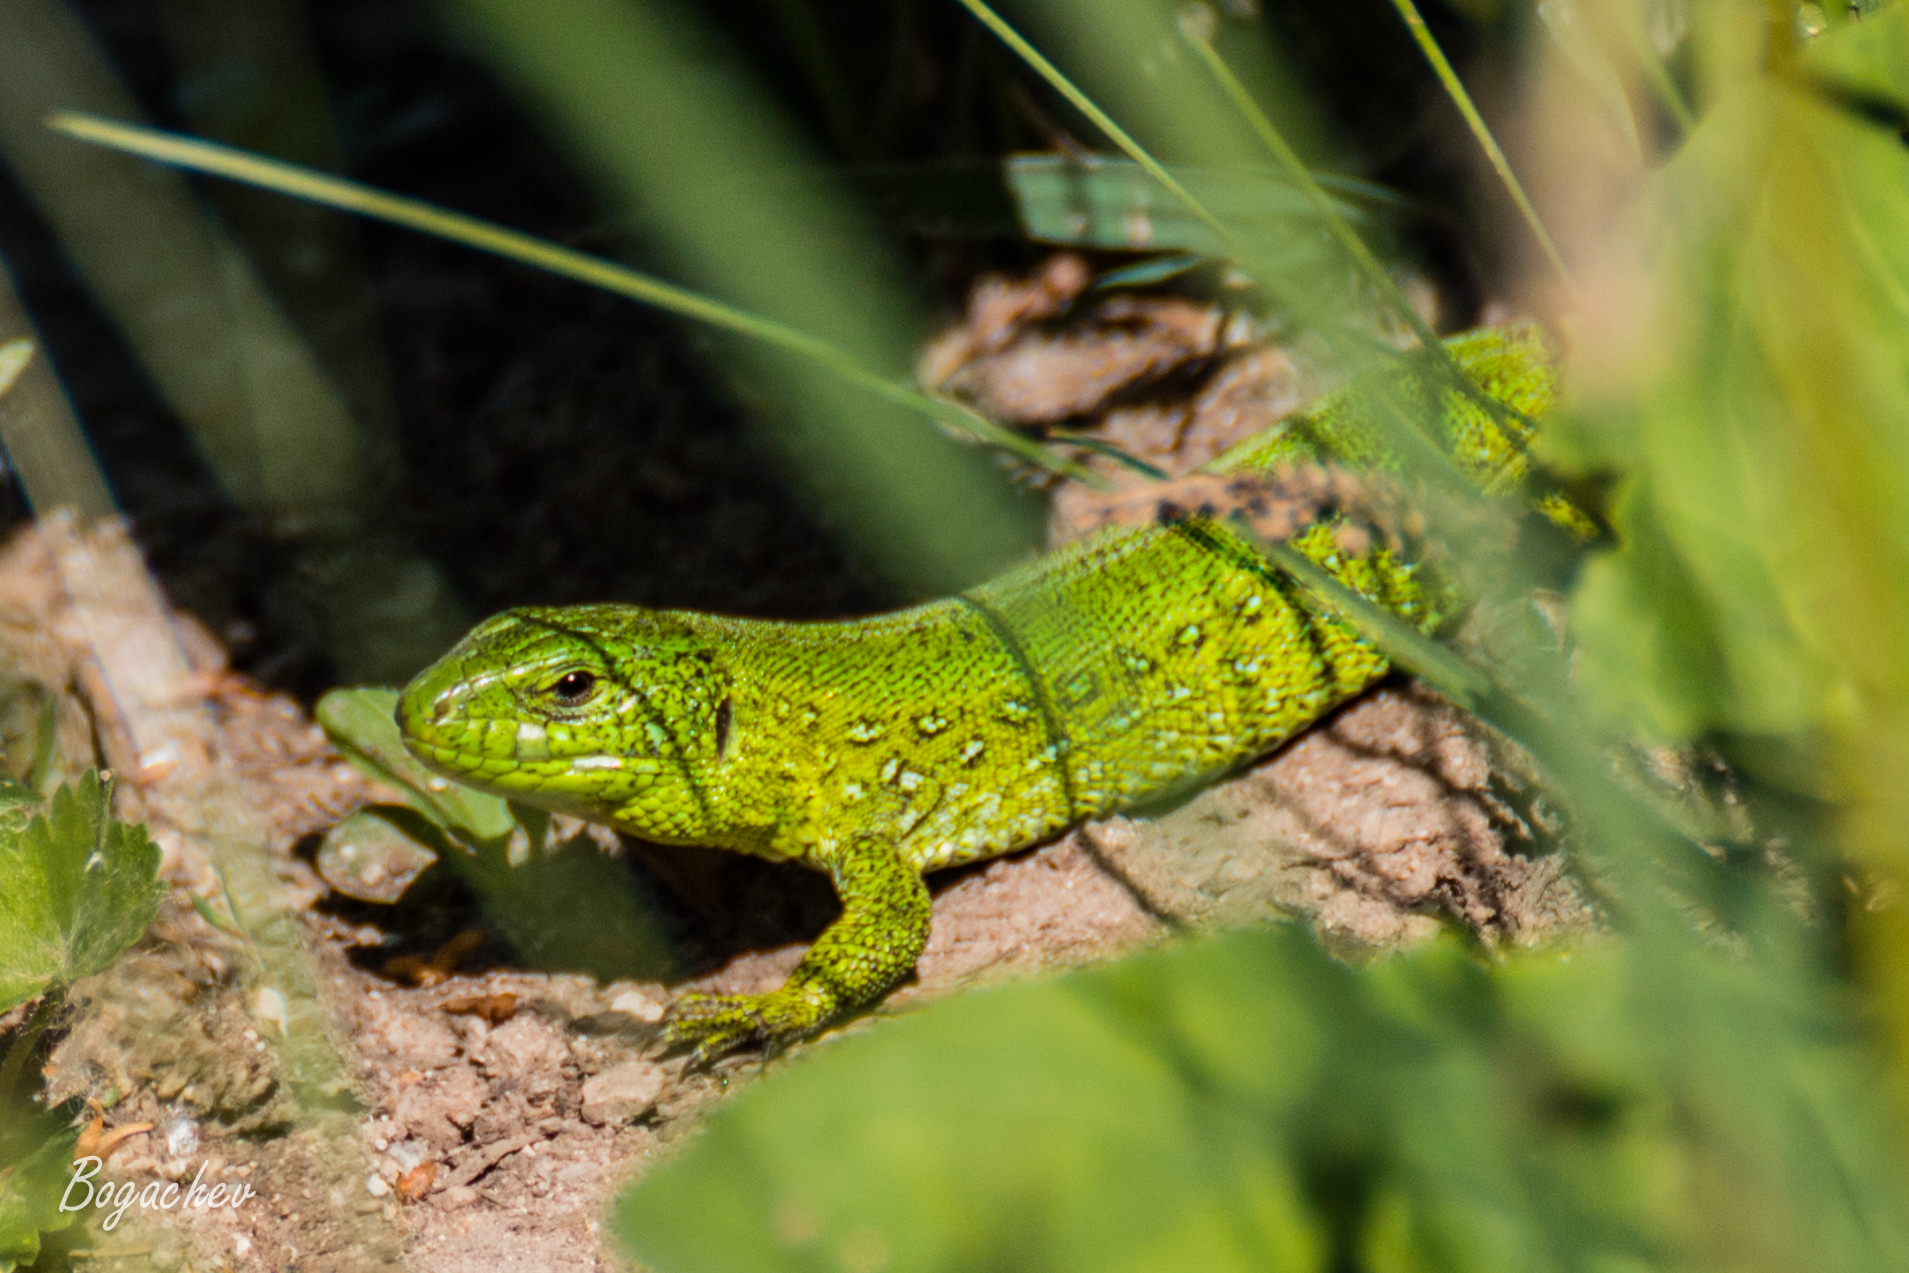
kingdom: Animalia
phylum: Chordata
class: Squamata
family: Lacertidae
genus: Lacerta
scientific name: Lacerta agilis
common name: Sand lizard
